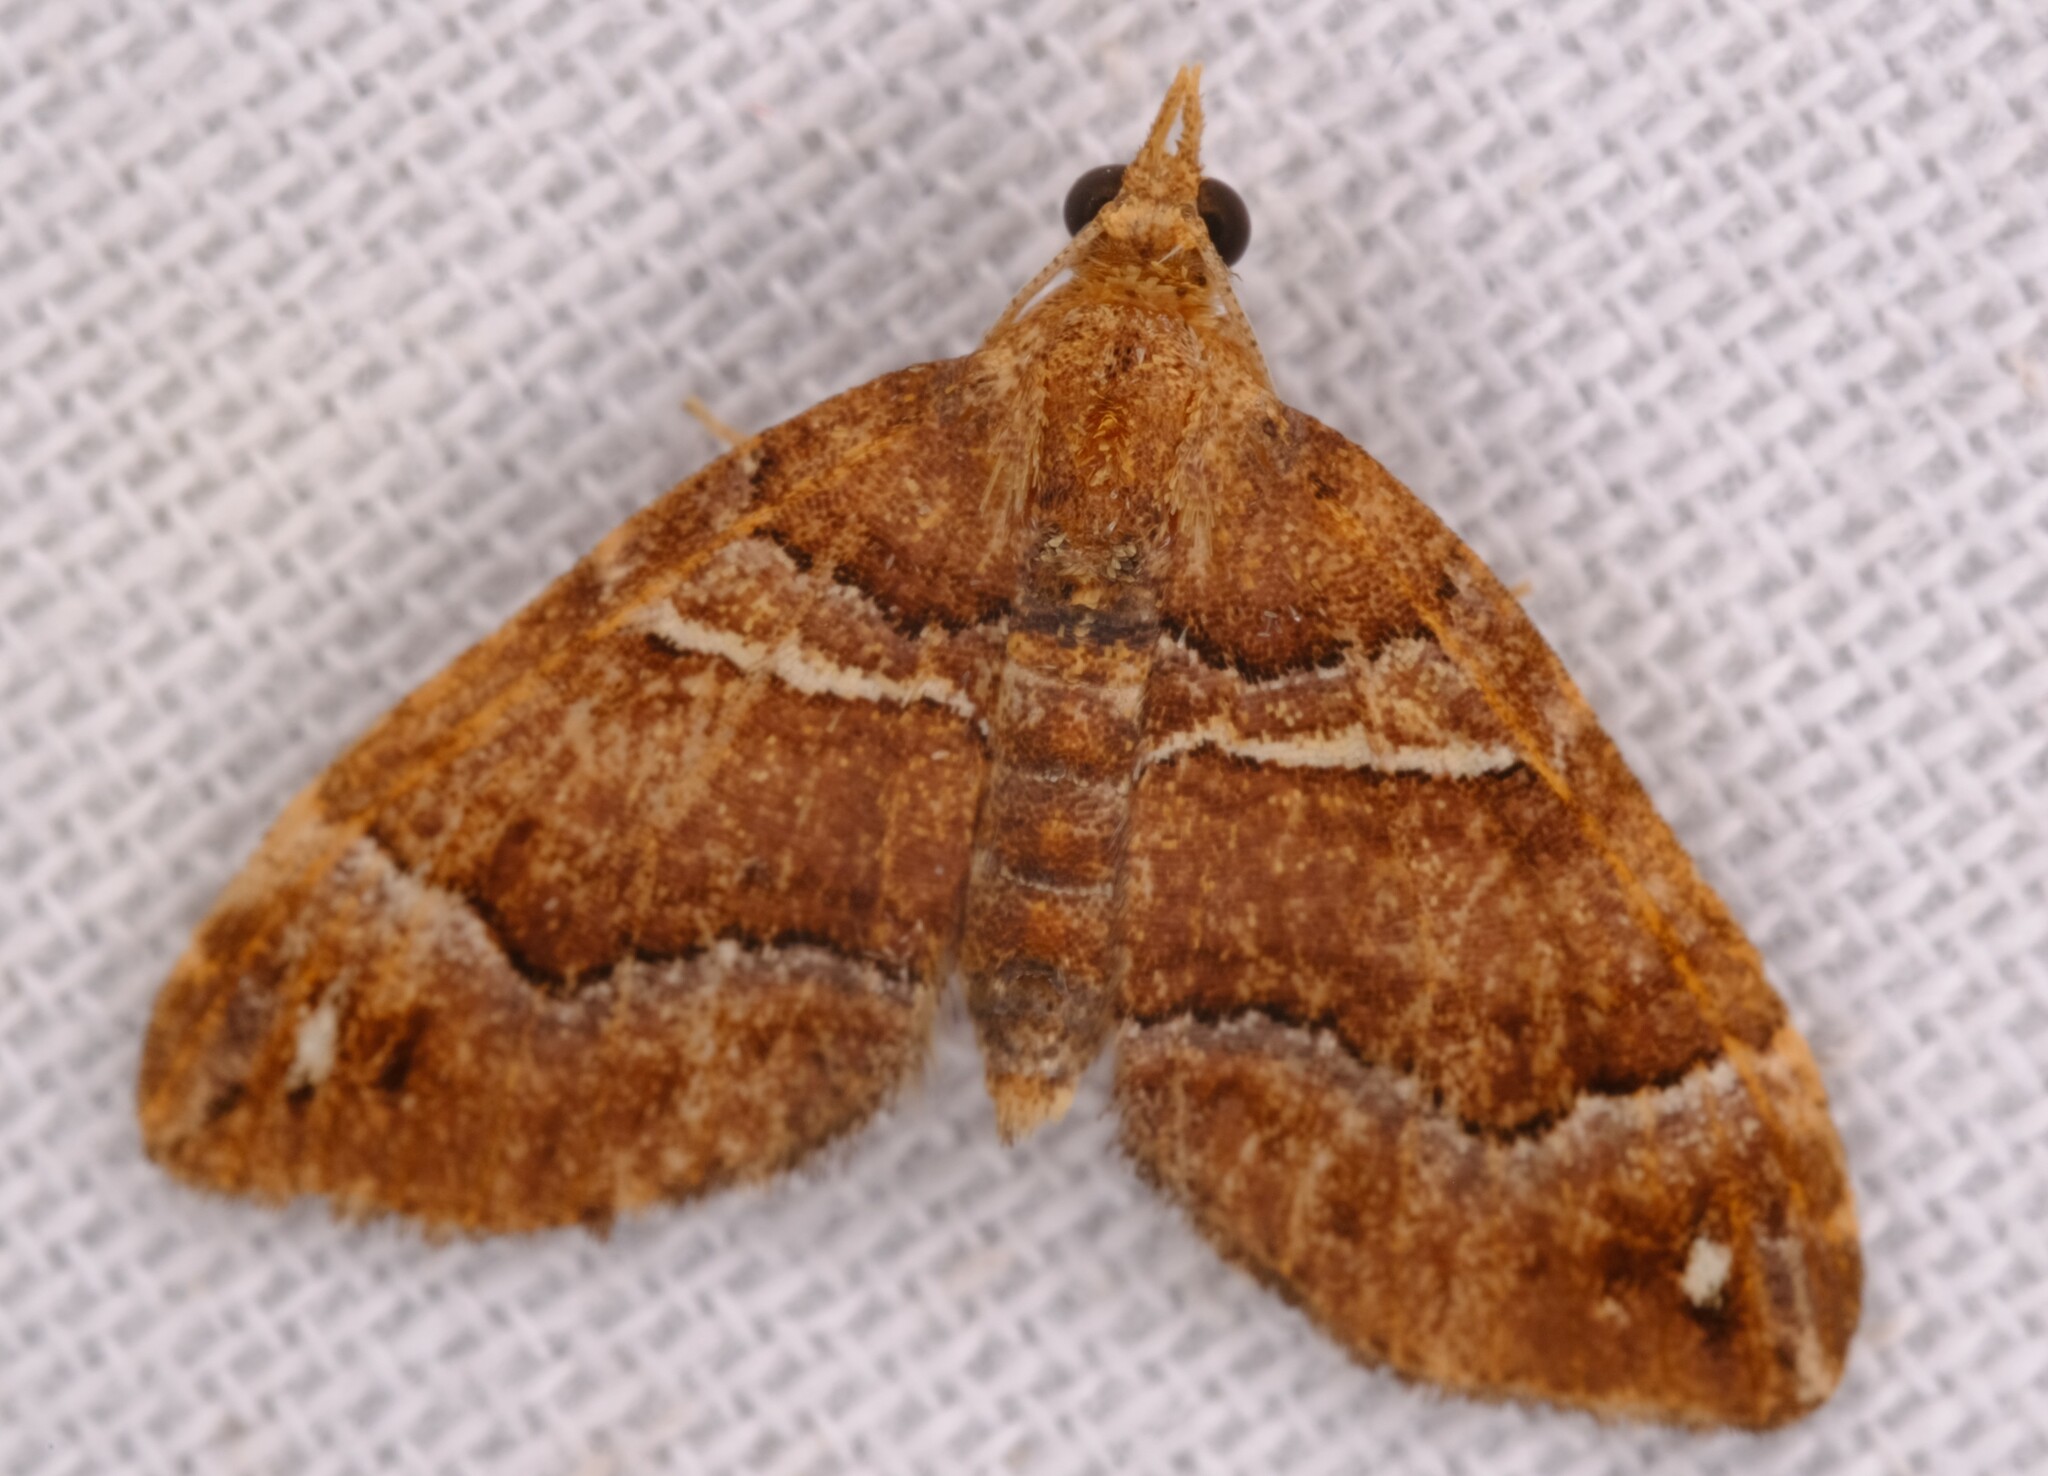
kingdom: Animalia
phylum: Arthropoda
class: Insecta
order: Lepidoptera
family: Geometridae
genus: Chaetolopha
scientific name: Chaetolopha emporias
